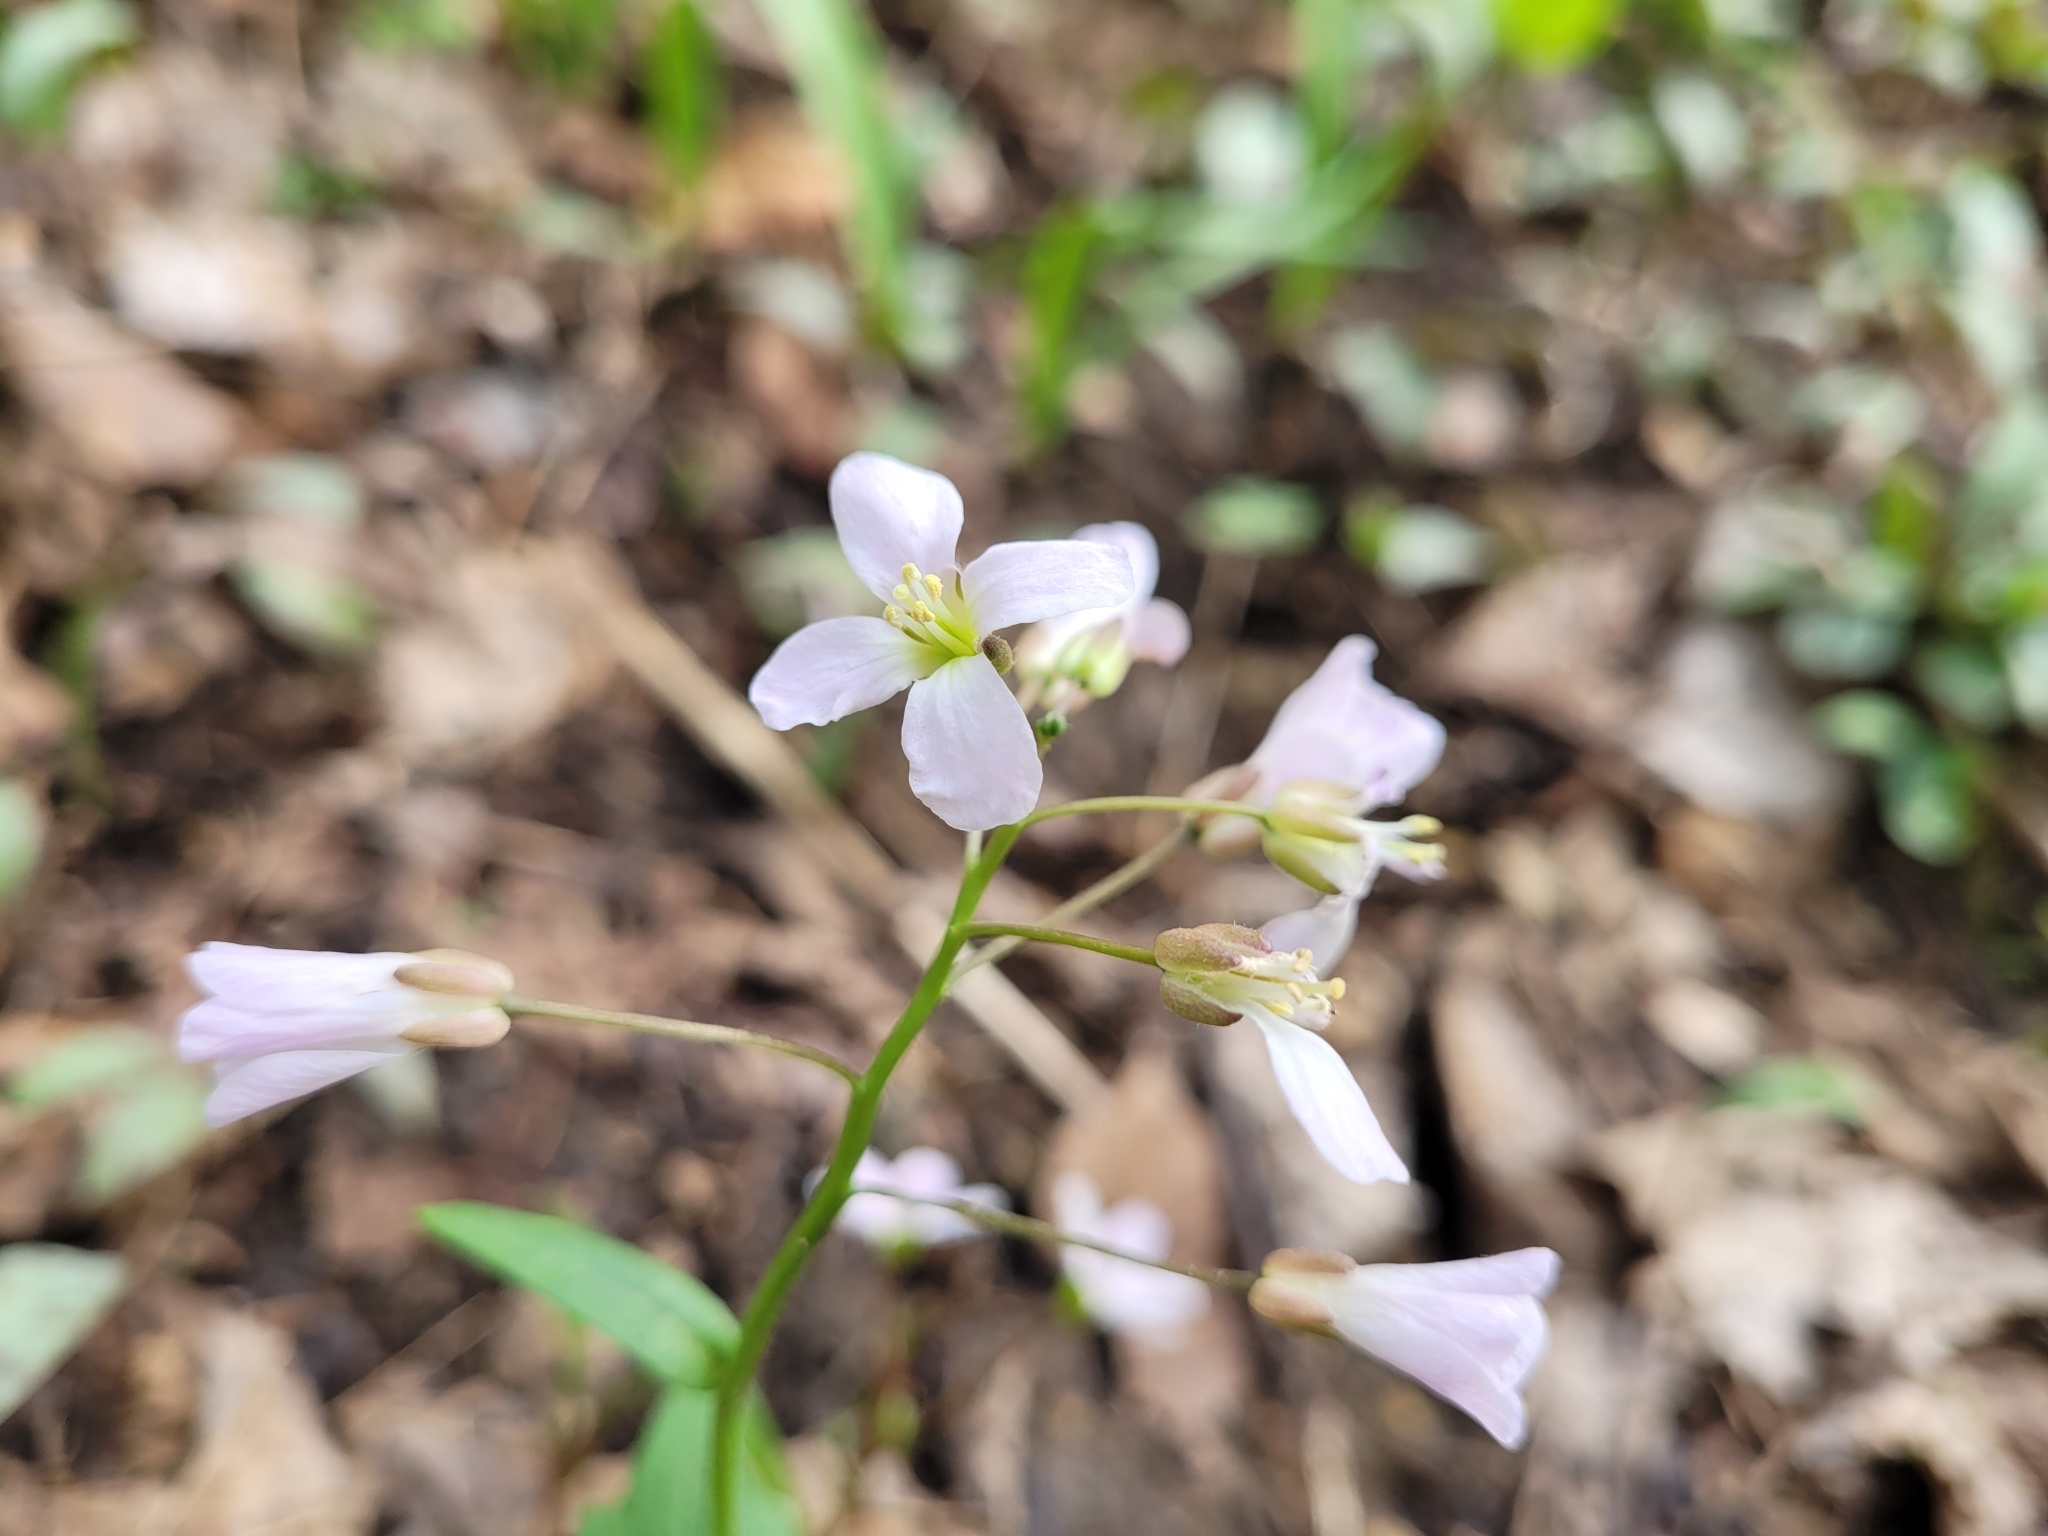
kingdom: Plantae
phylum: Tracheophyta
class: Magnoliopsida
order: Brassicales
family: Brassicaceae
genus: Cardamine
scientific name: Cardamine douglassii
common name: Purple cress
